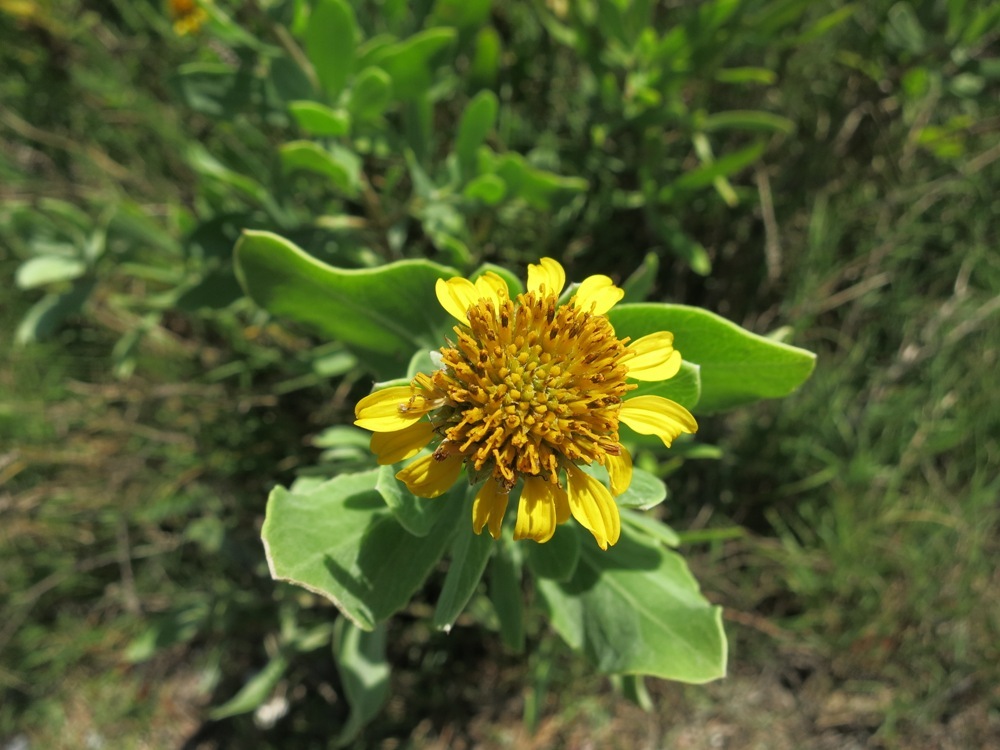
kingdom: Plantae
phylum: Tracheophyta
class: Magnoliopsida
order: Asterales
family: Asteraceae
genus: Borrichia
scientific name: Borrichia frutescens
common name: Sea oxeye
